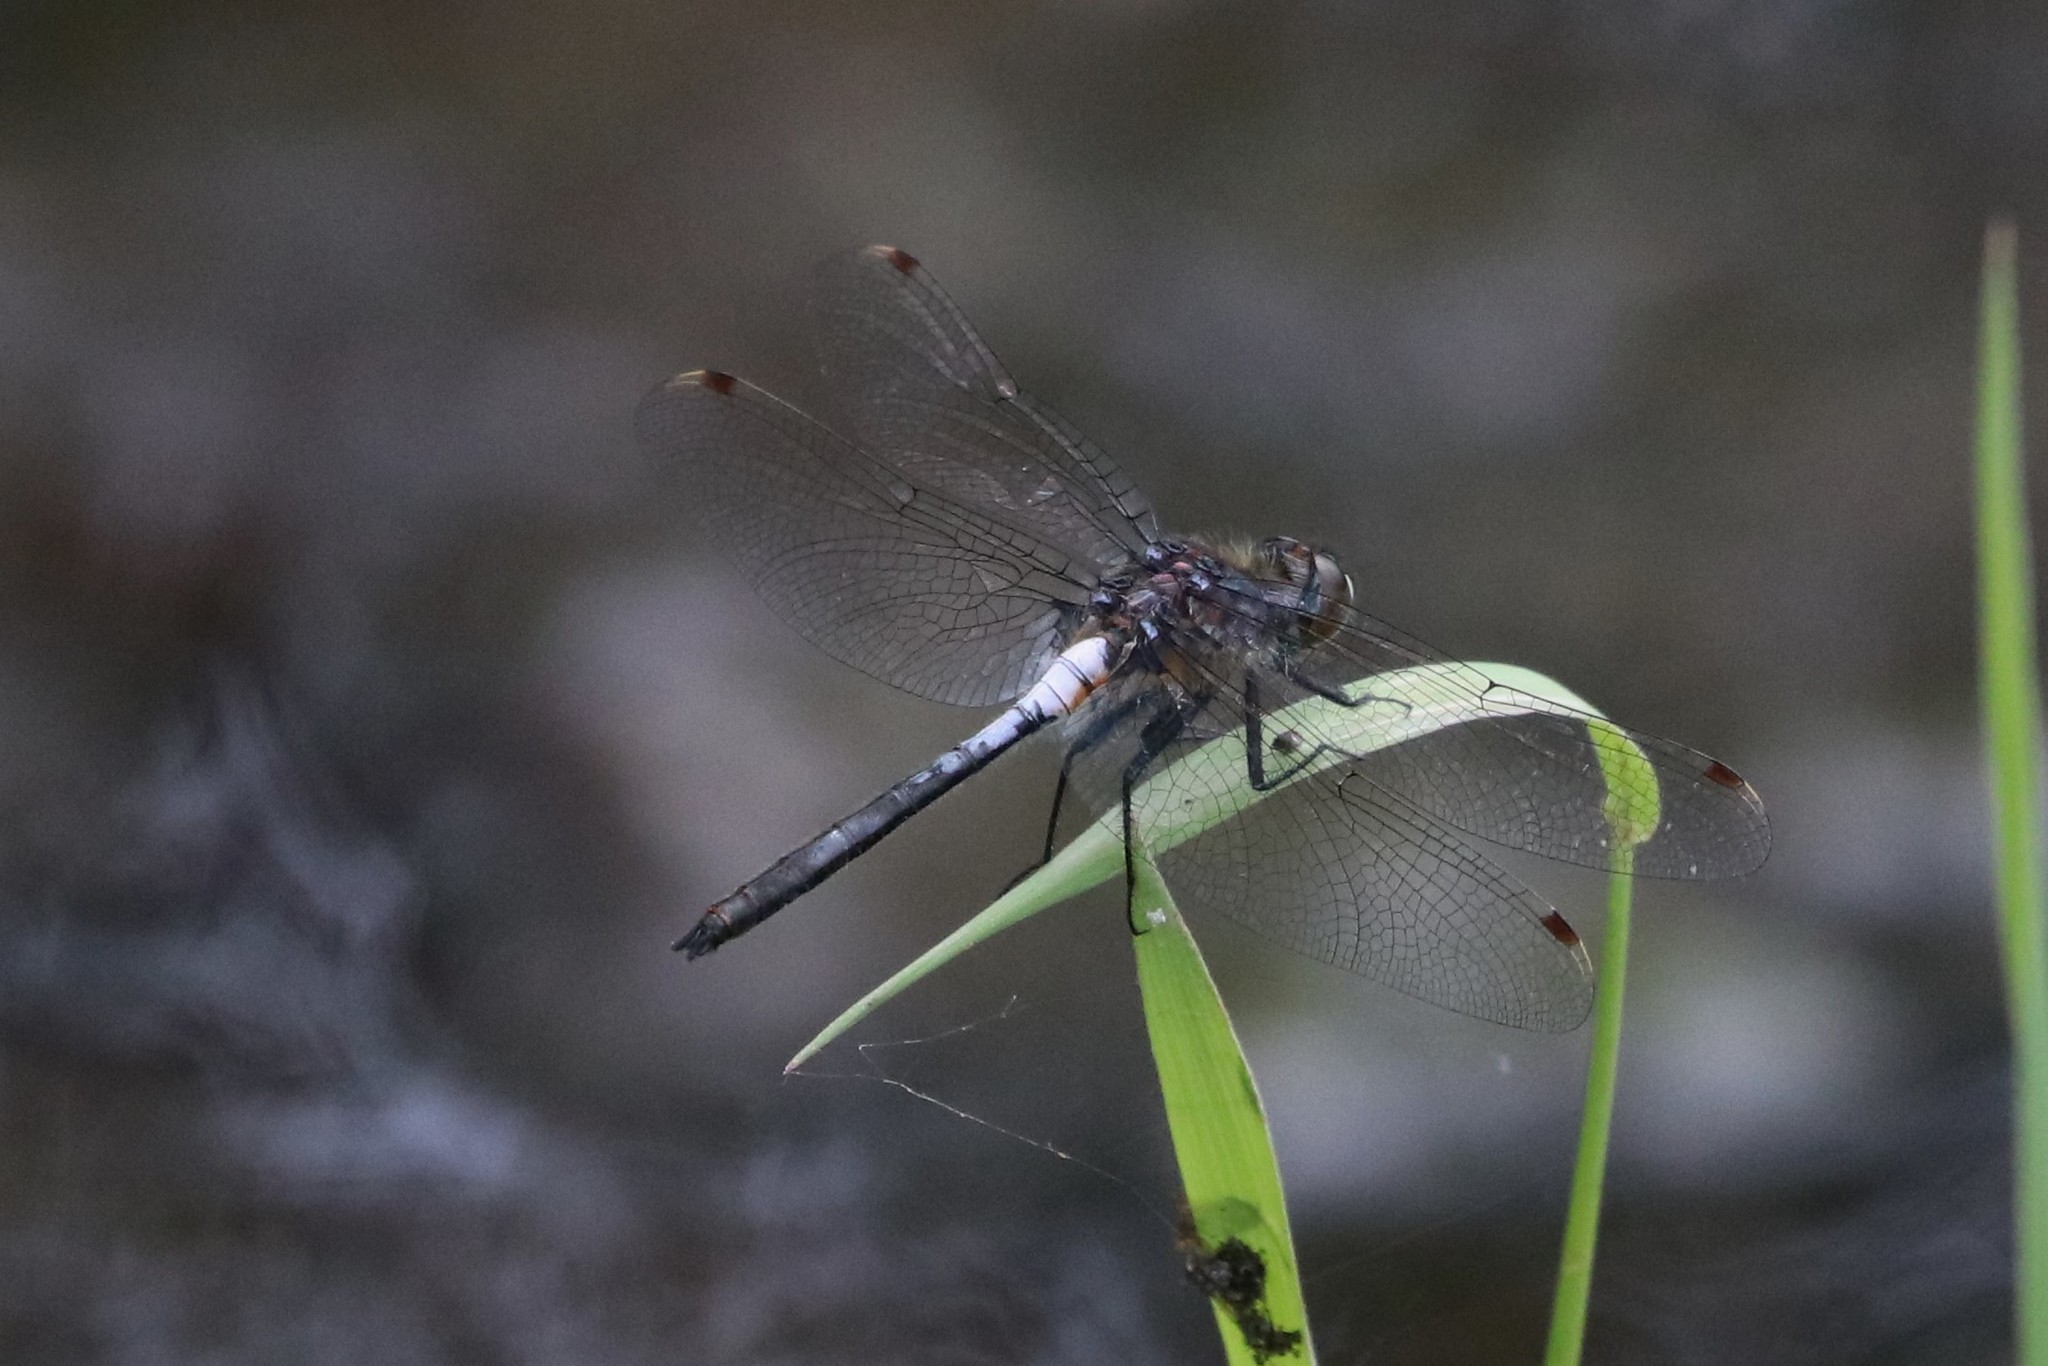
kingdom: Animalia
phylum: Arthropoda
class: Insecta
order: Odonata
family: Libellulidae
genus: Leucorrhinia
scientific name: Leucorrhinia proxima
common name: Belted whiteface
